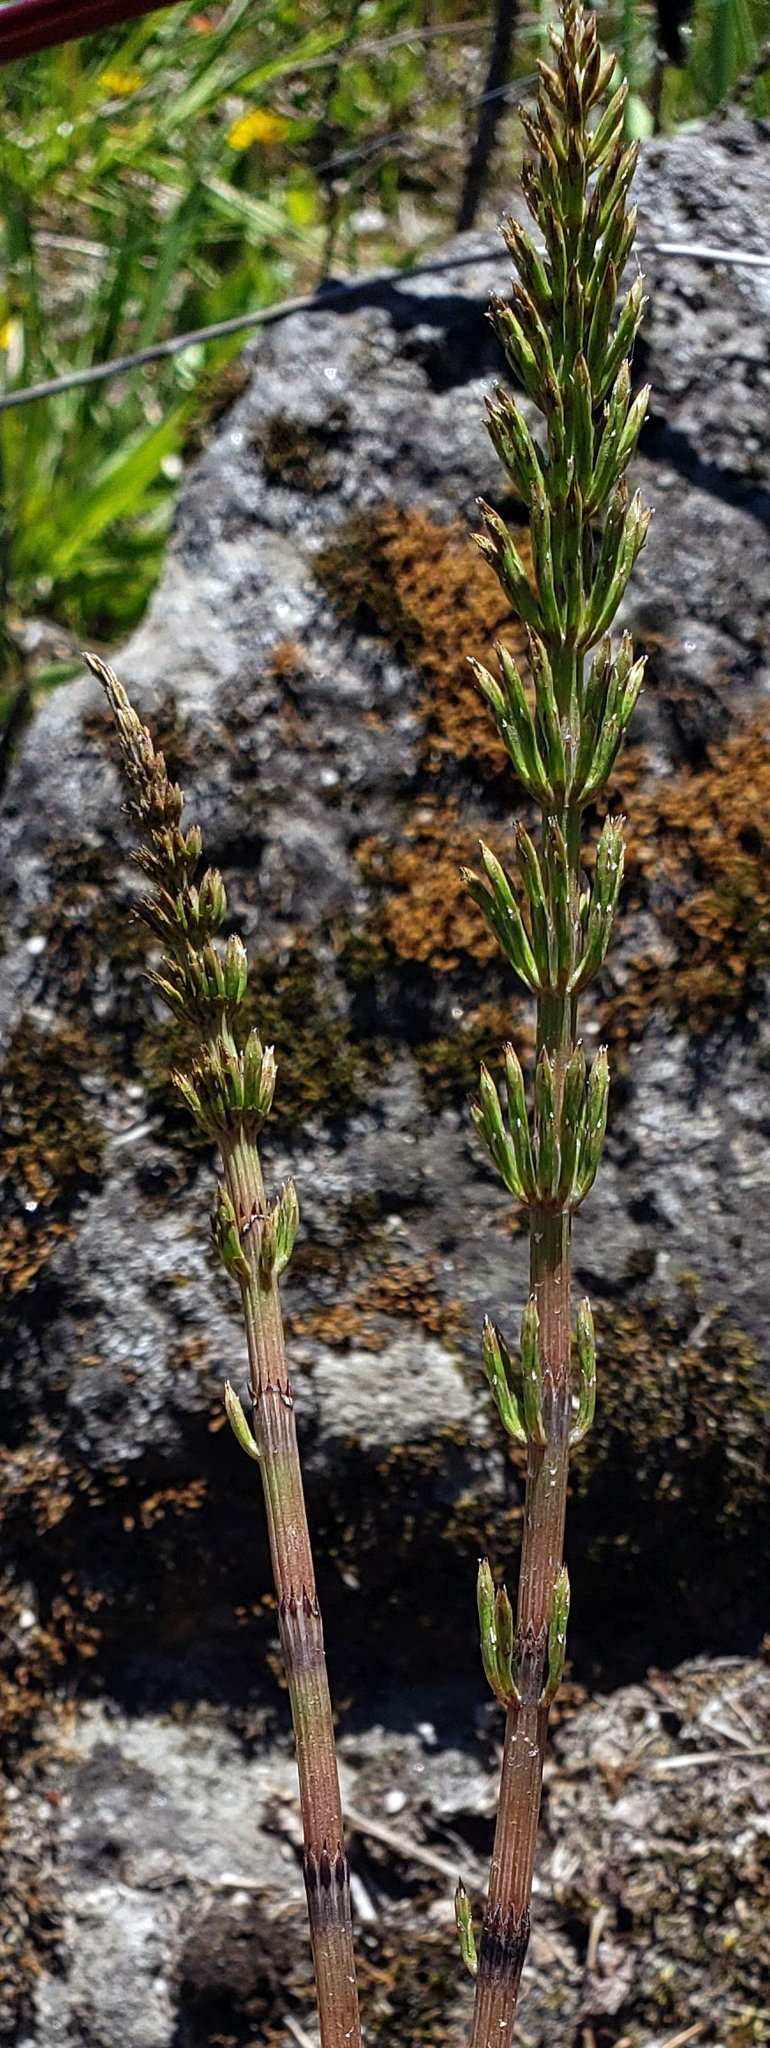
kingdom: Plantae
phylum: Tracheophyta
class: Polypodiopsida
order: Equisetales
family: Equisetaceae
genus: Equisetum
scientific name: Equisetum arvense
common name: Field horsetail
